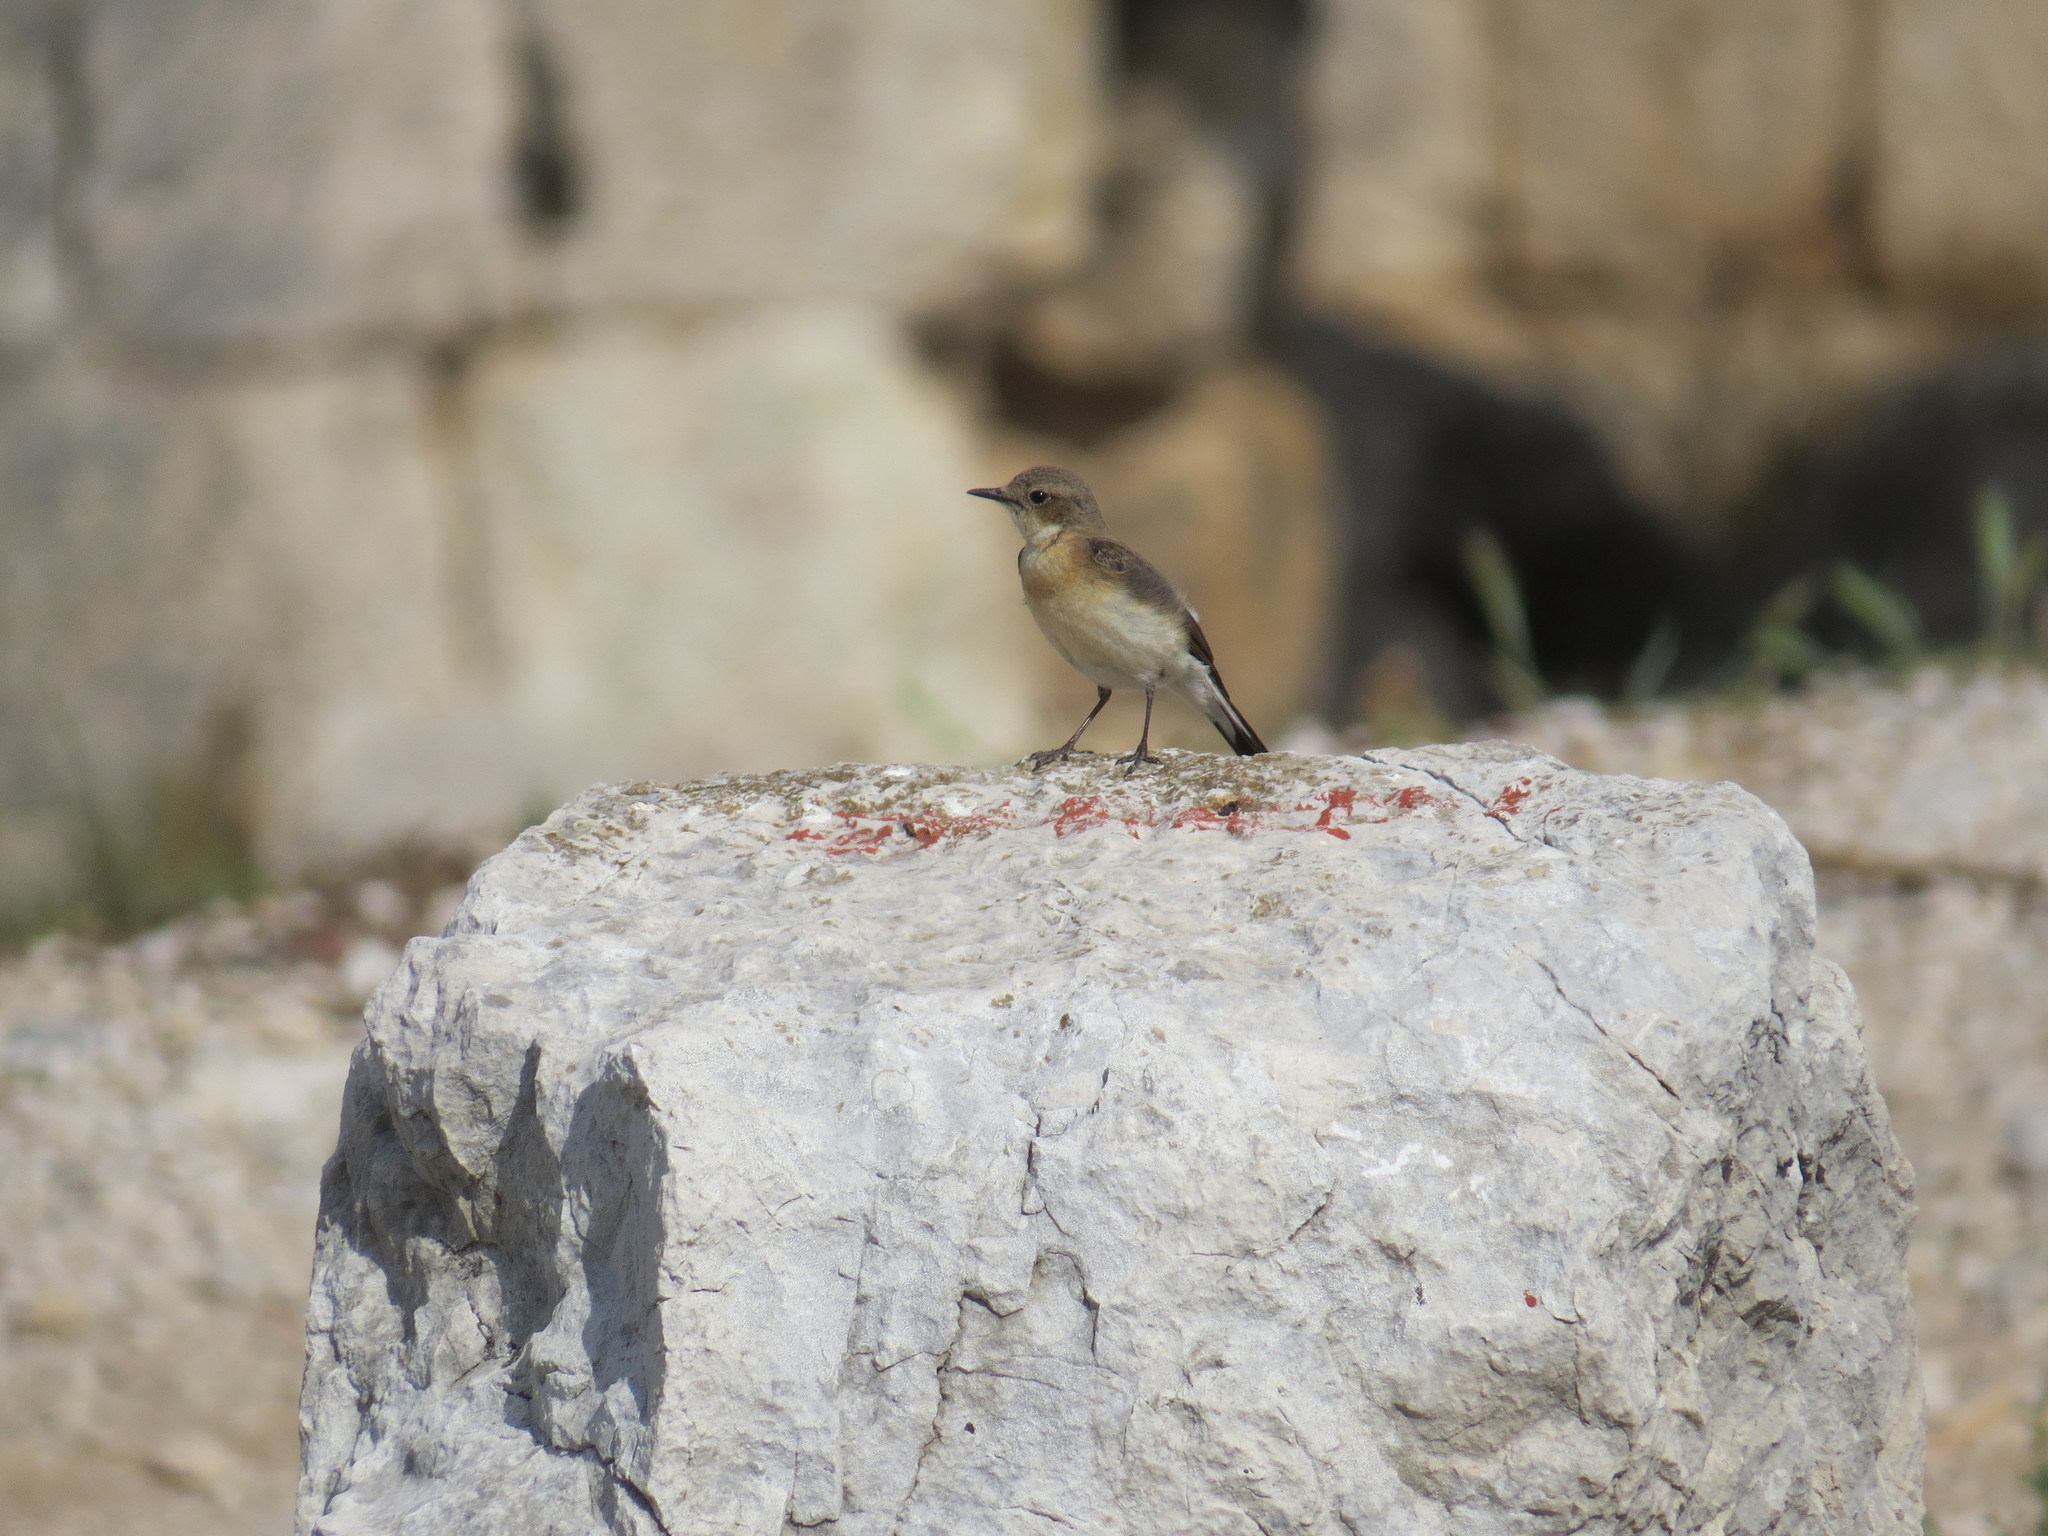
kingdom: Animalia
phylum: Chordata
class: Aves
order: Passeriformes
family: Muscicapidae
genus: Oenanthe
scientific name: Oenanthe hispanica
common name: Black-eared wheatear
